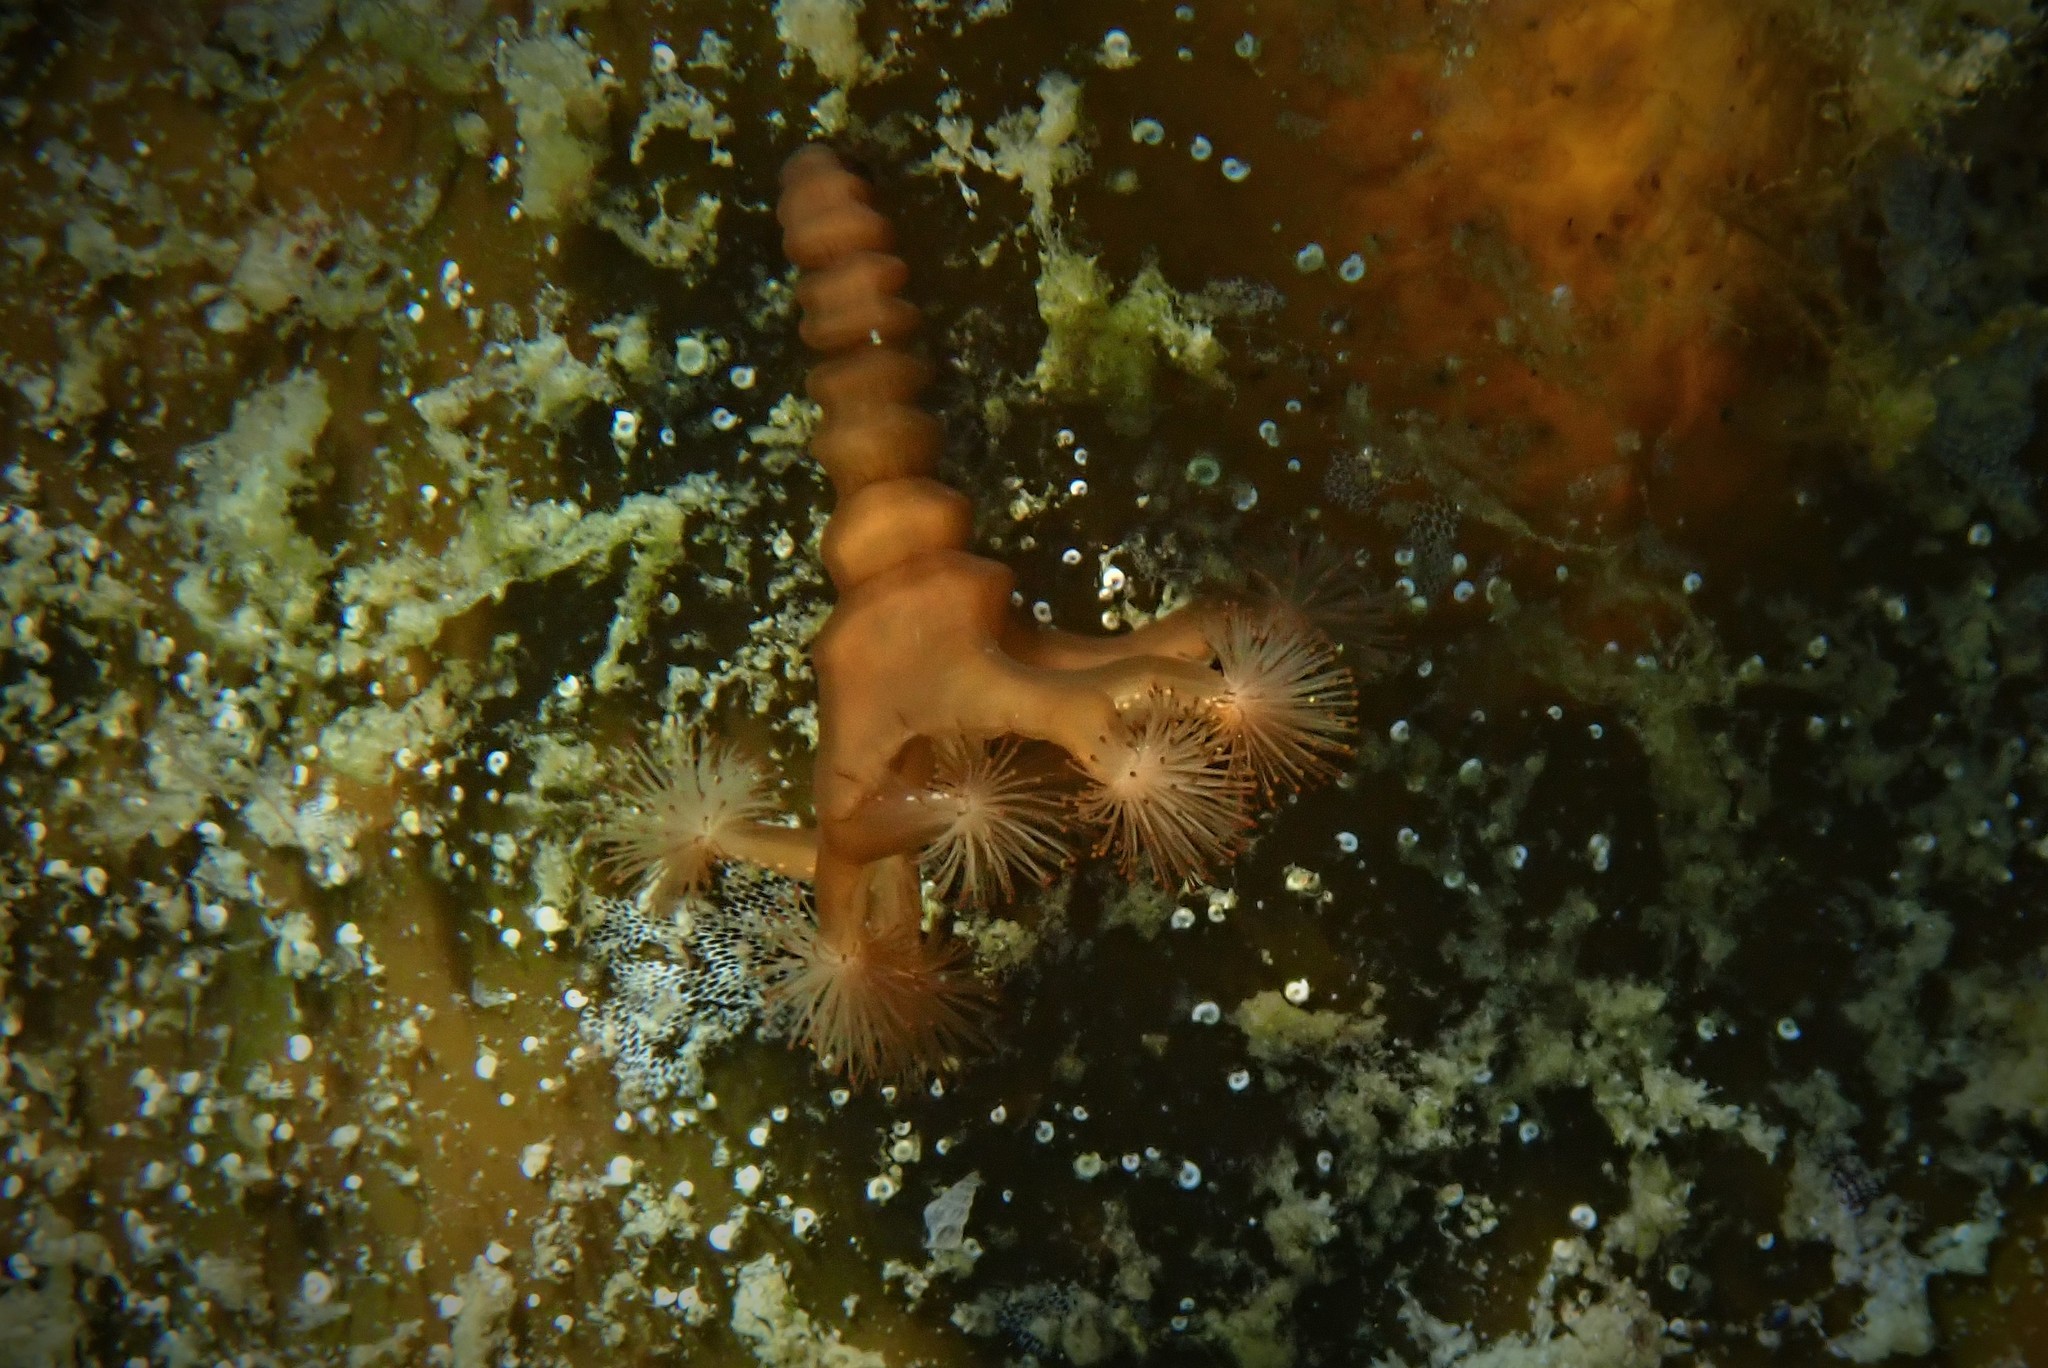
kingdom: Animalia
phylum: Cnidaria
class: Staurozoa
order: Stauromedusae
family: Lucernariidae
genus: Lucernaria
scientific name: Lucernaria quadricornis
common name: Horned stalked jellyfish
